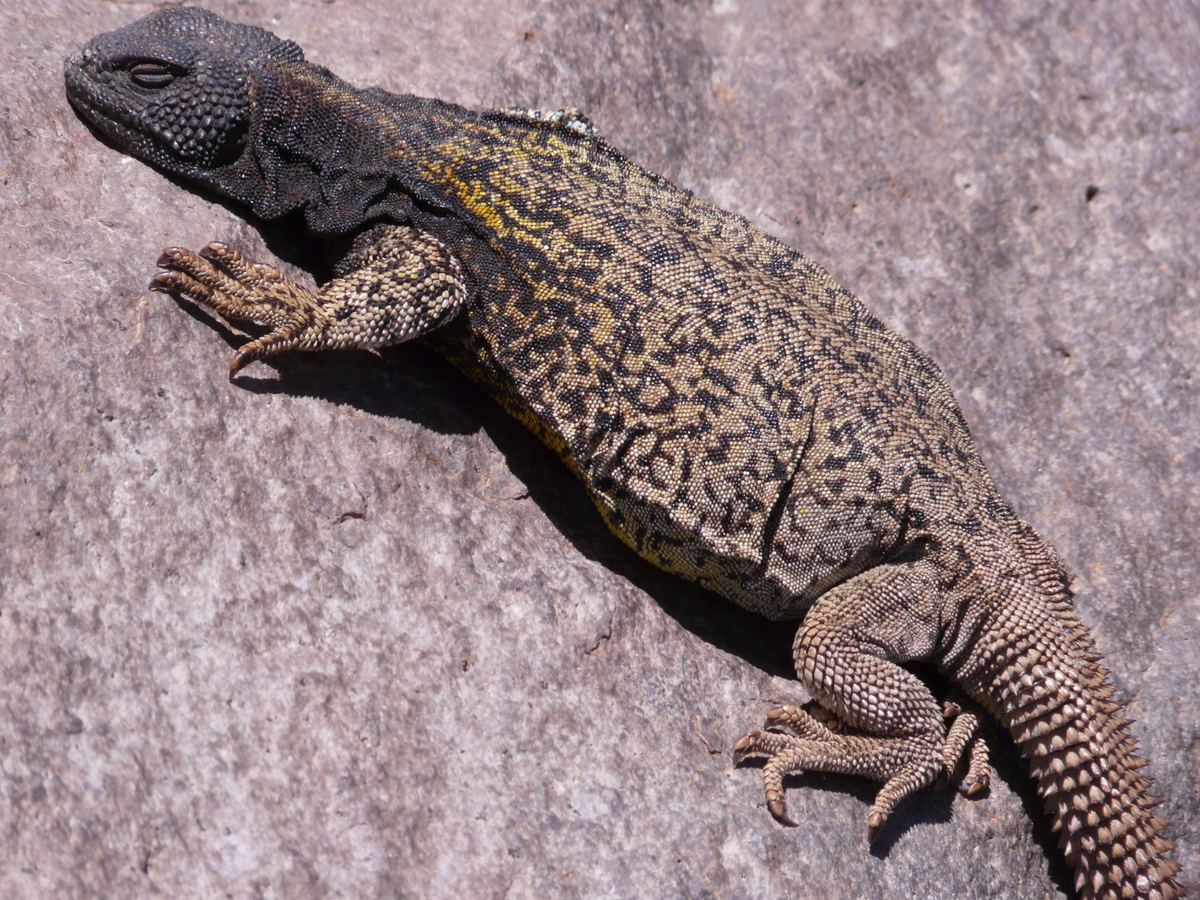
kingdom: Animalia
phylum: Chordata
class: Squamata
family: Liolaemidae
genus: Phymaturus
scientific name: Phymaturus verdugo
